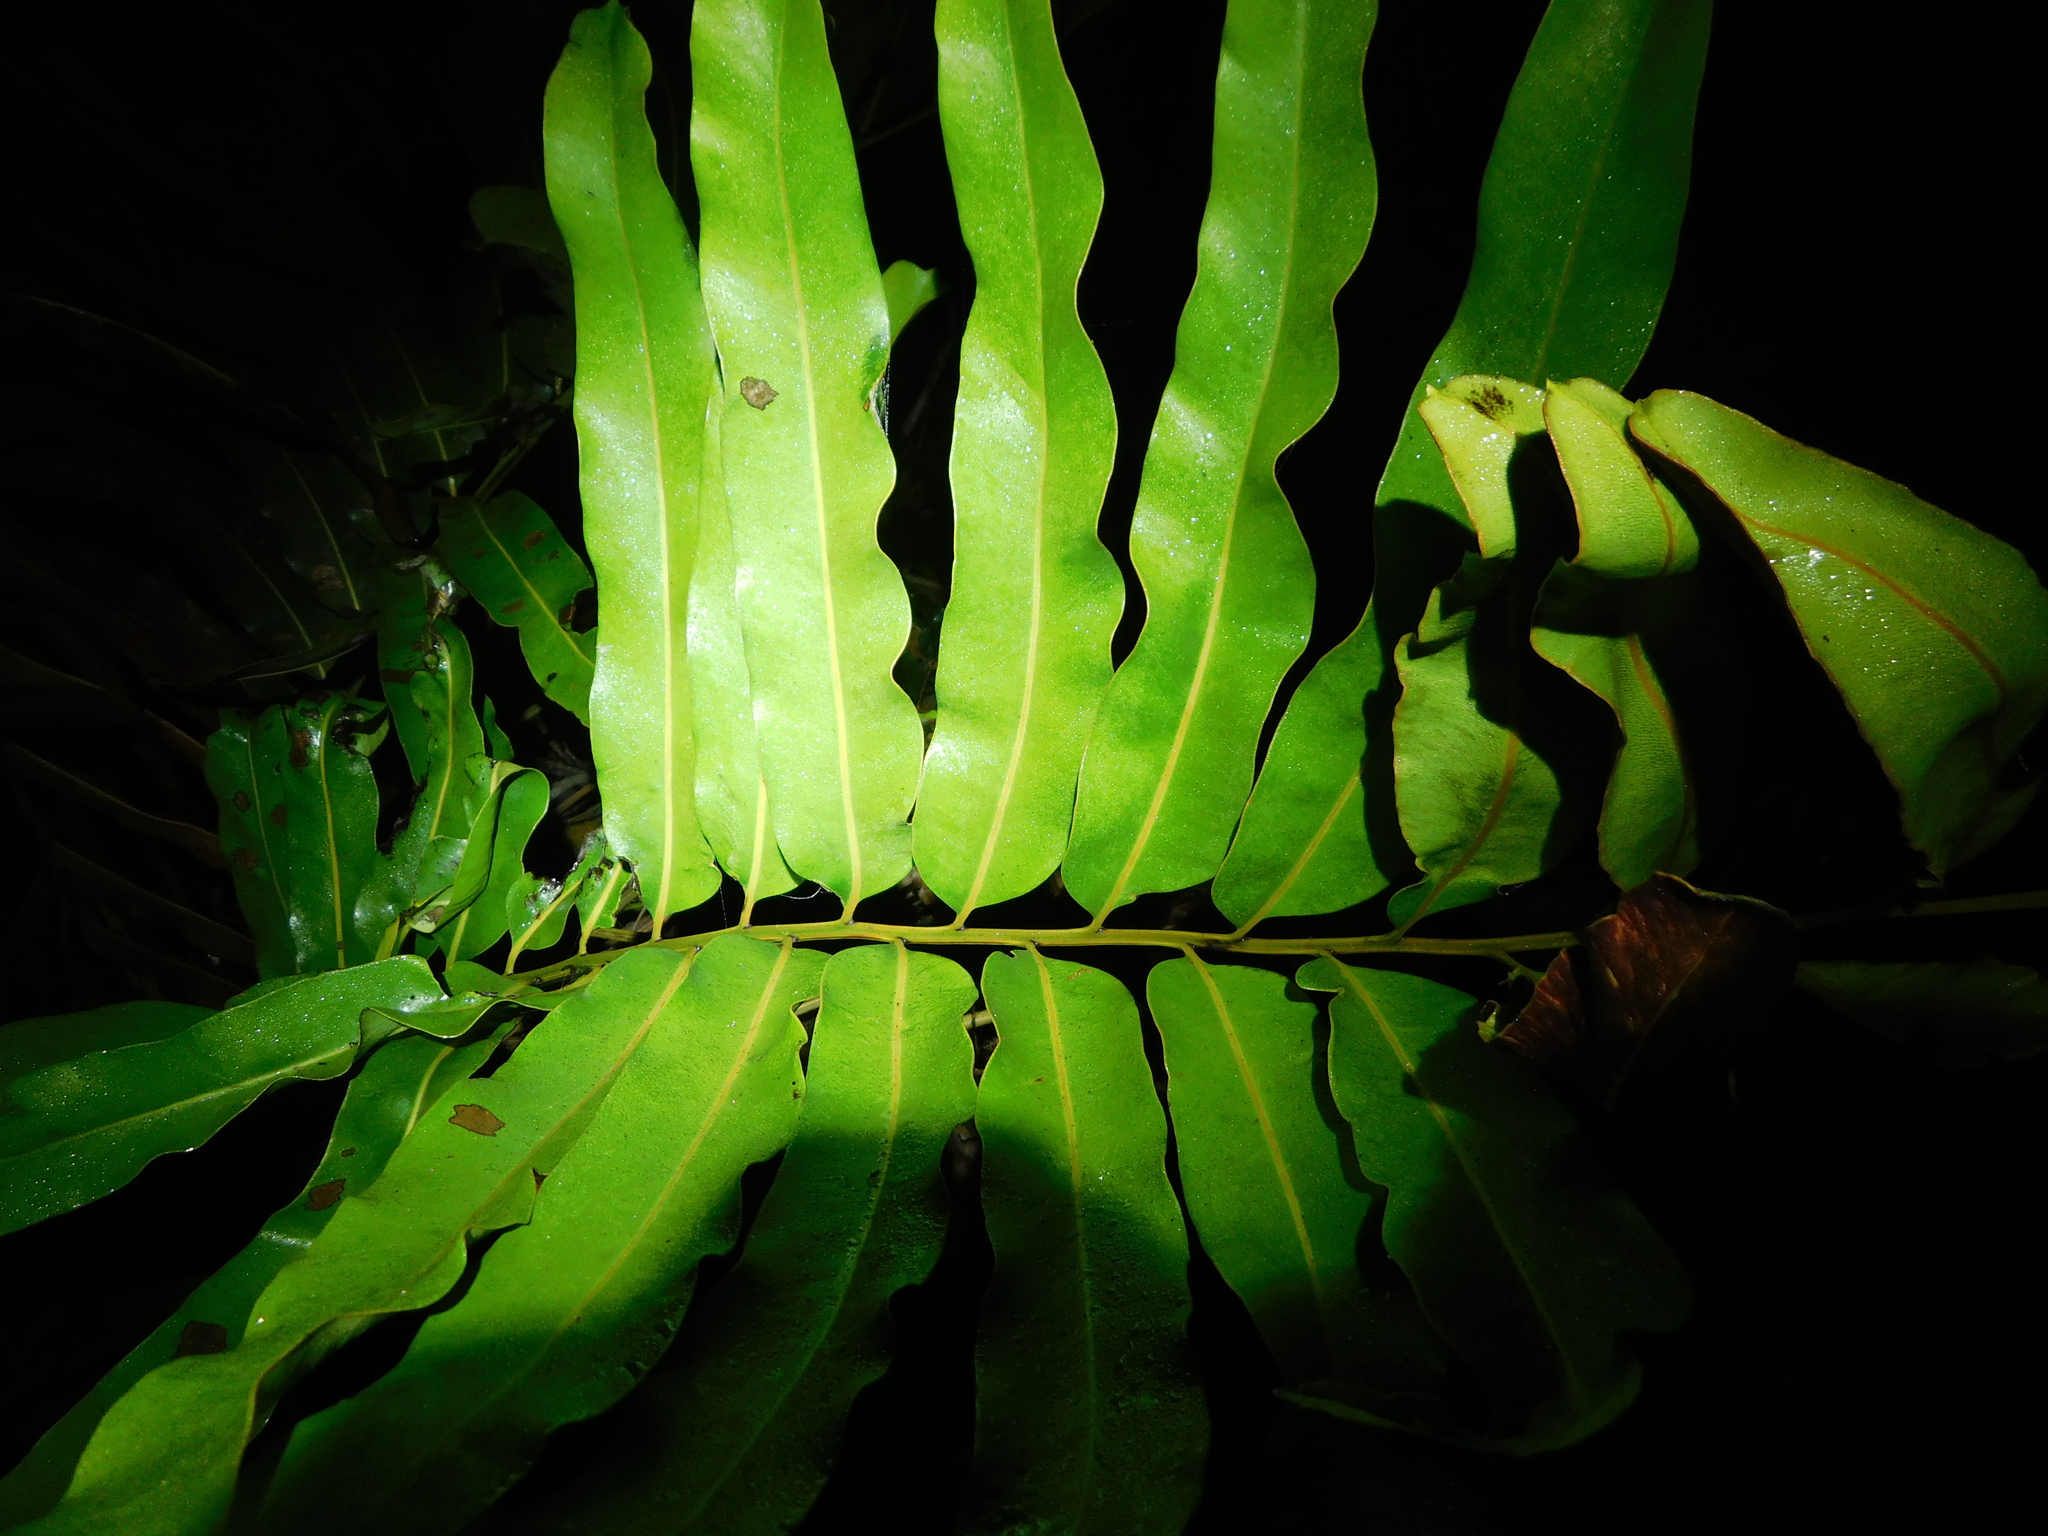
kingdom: Plantae
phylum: Tracheophyta
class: Polypodiopsida
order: Polypodiales
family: Pteridaceae
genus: Acrostichum
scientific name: Acrostichum aureum
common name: Leather fern
